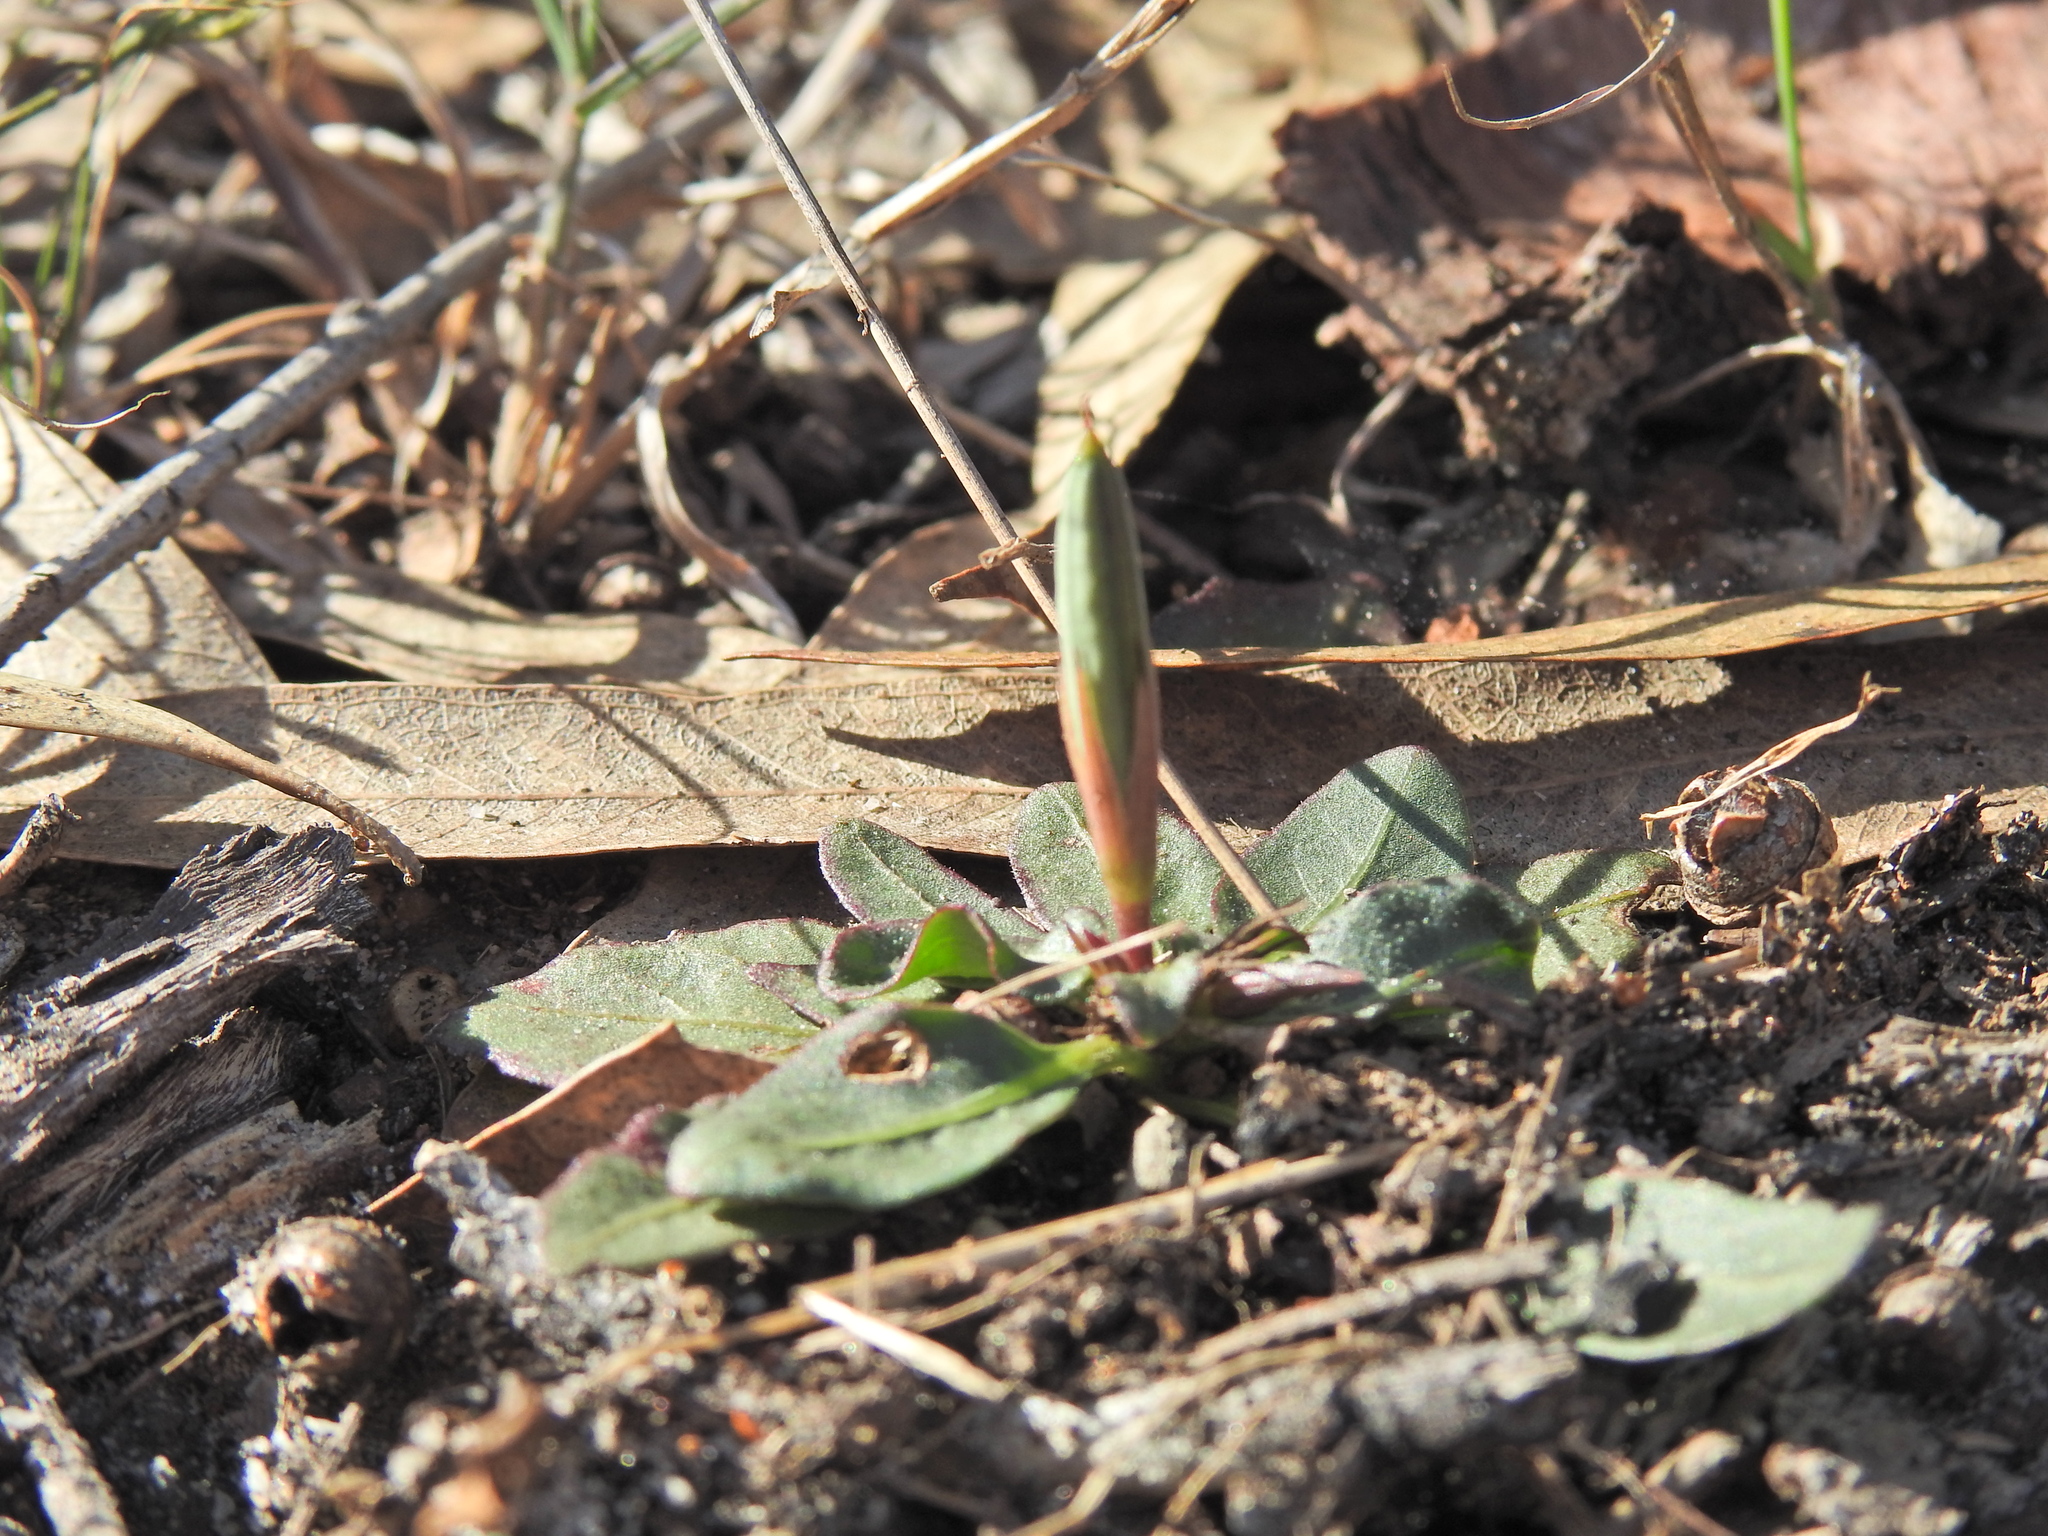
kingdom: Plantae
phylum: Tracheophyta
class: Magnoliopsida
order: Lamiales
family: Acanthaceae
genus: Brunoniella
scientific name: Brunoniella acaulis
